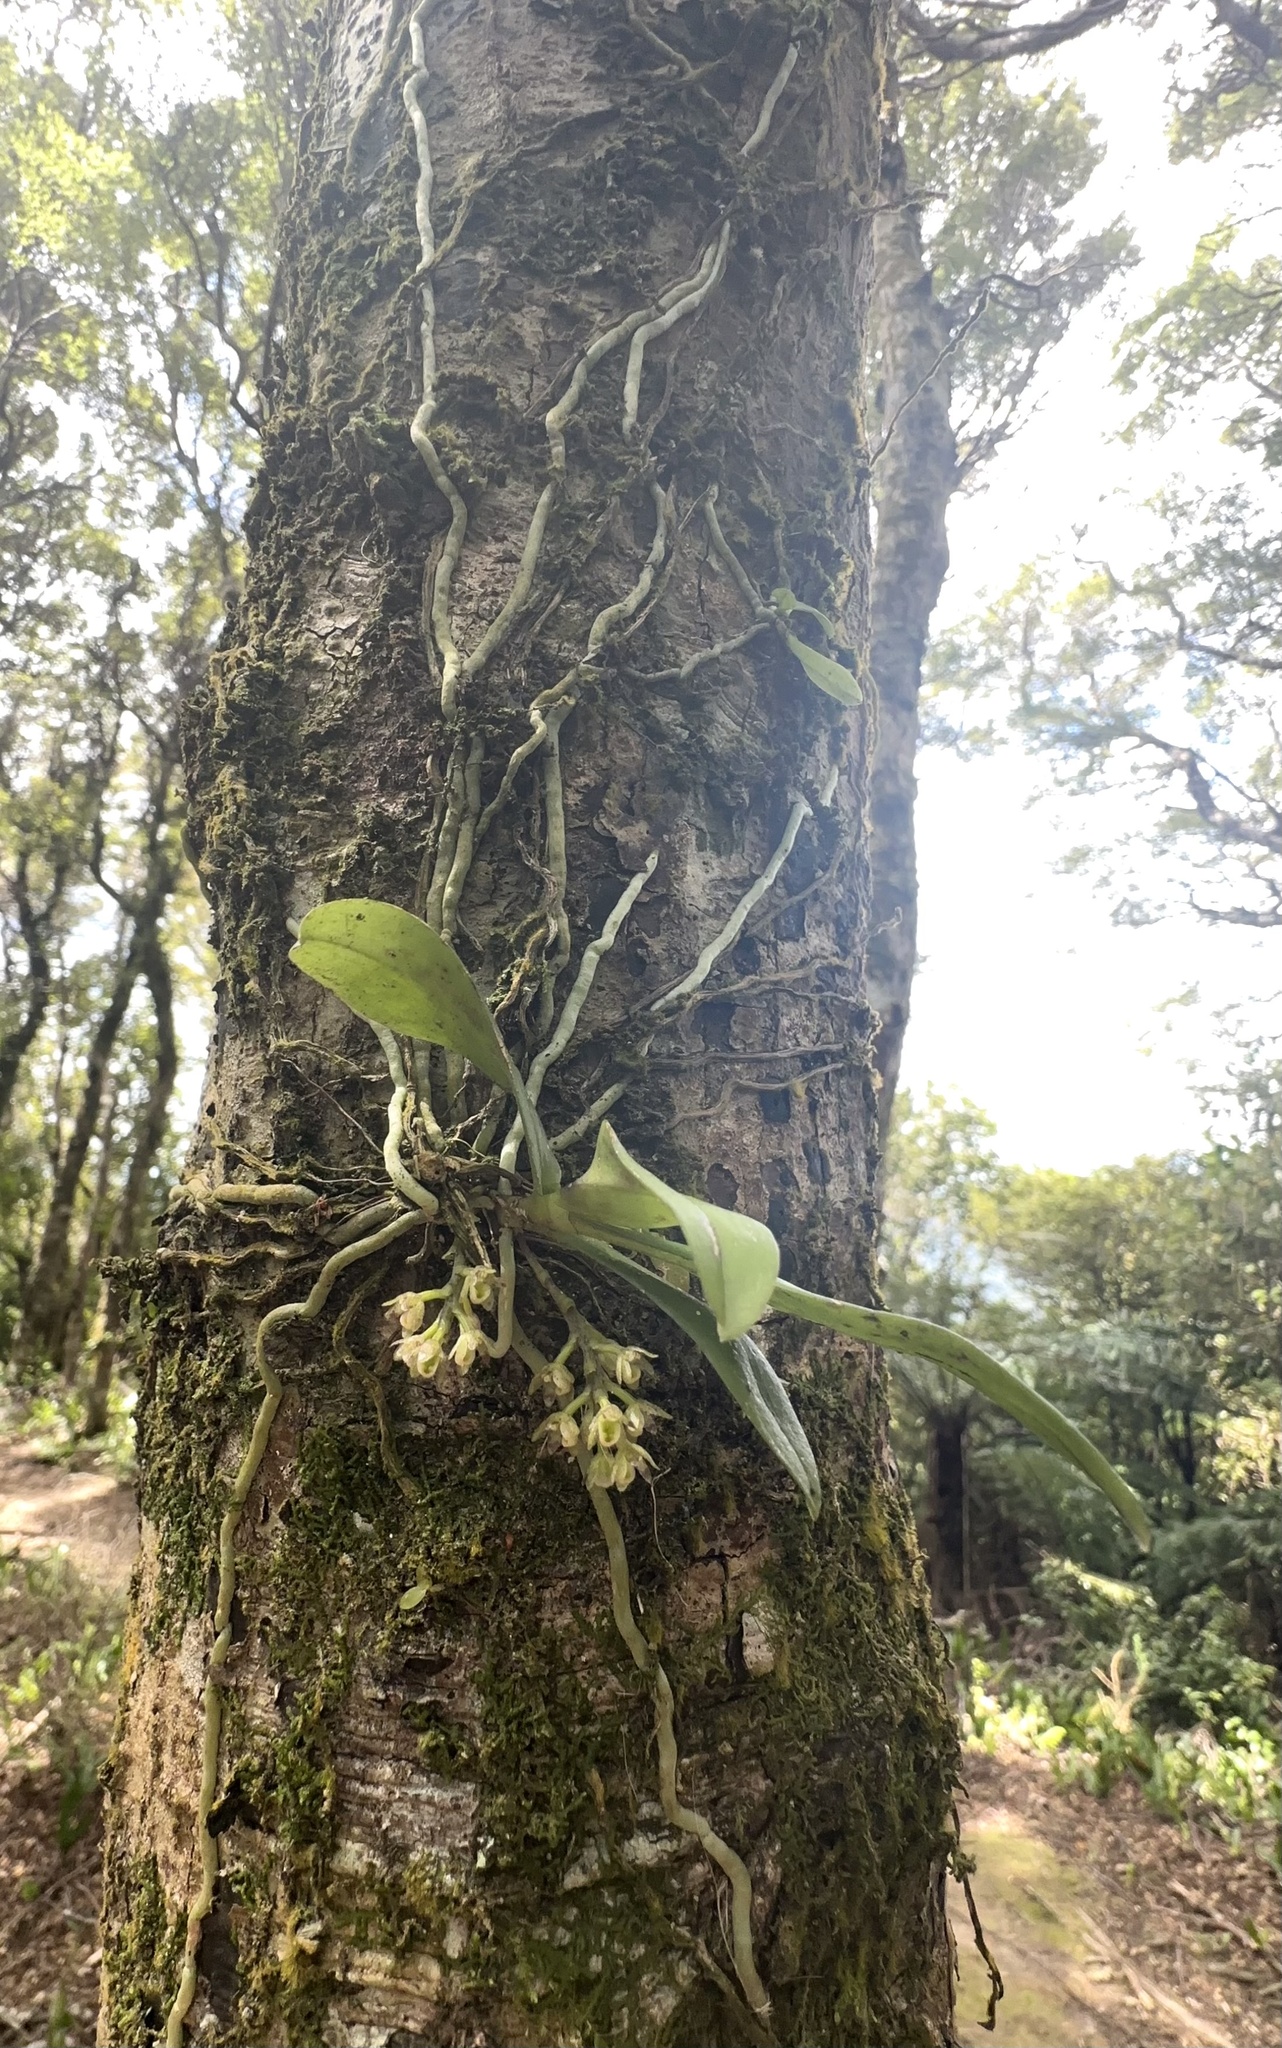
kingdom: Plantae
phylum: Tracheophyta
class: Liliopsida
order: Asparagales
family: Orchidaceae
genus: Drymoanthus
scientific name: Drymoanthus adversus
